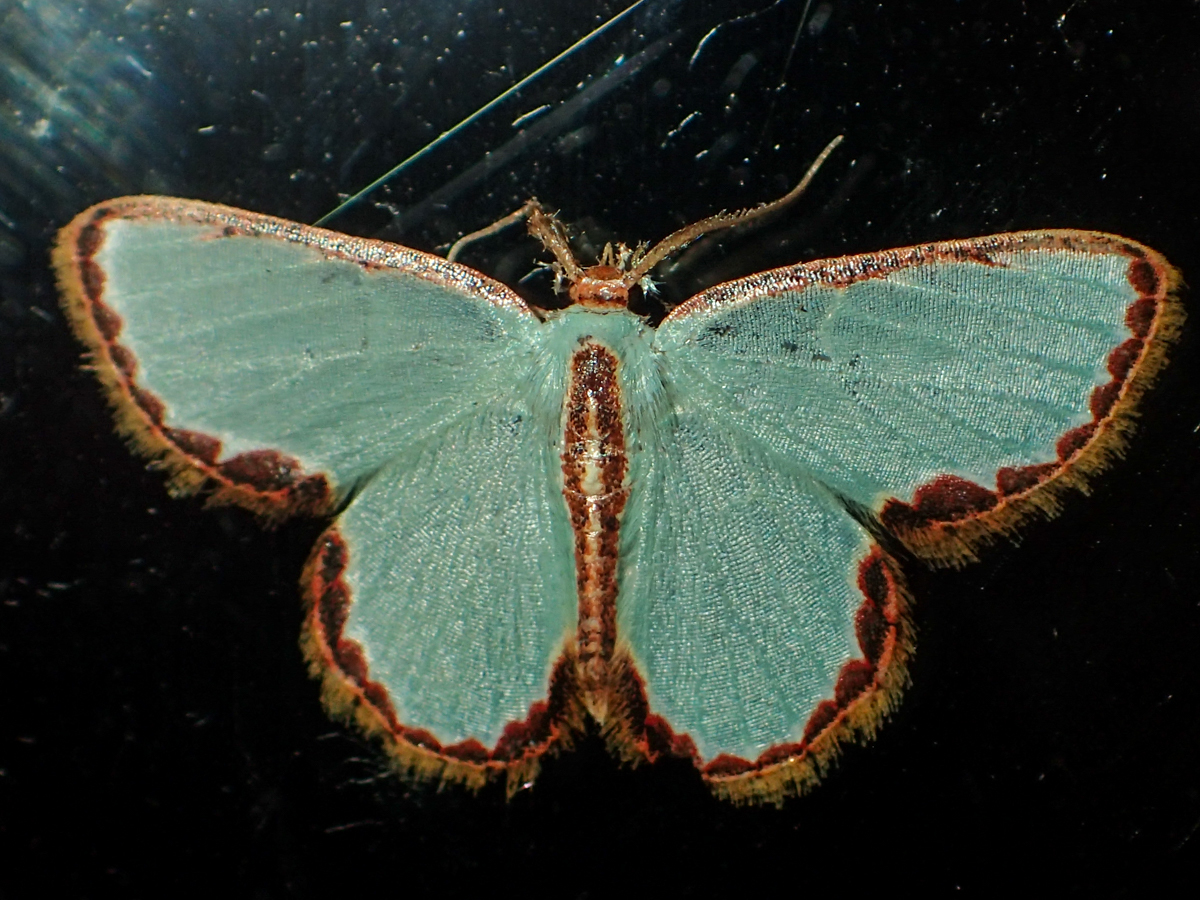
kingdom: Animalia
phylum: Arthropoda
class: Insecta
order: Lepidoptera
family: Geometridae
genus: Comostola
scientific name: Comostola turgescens
